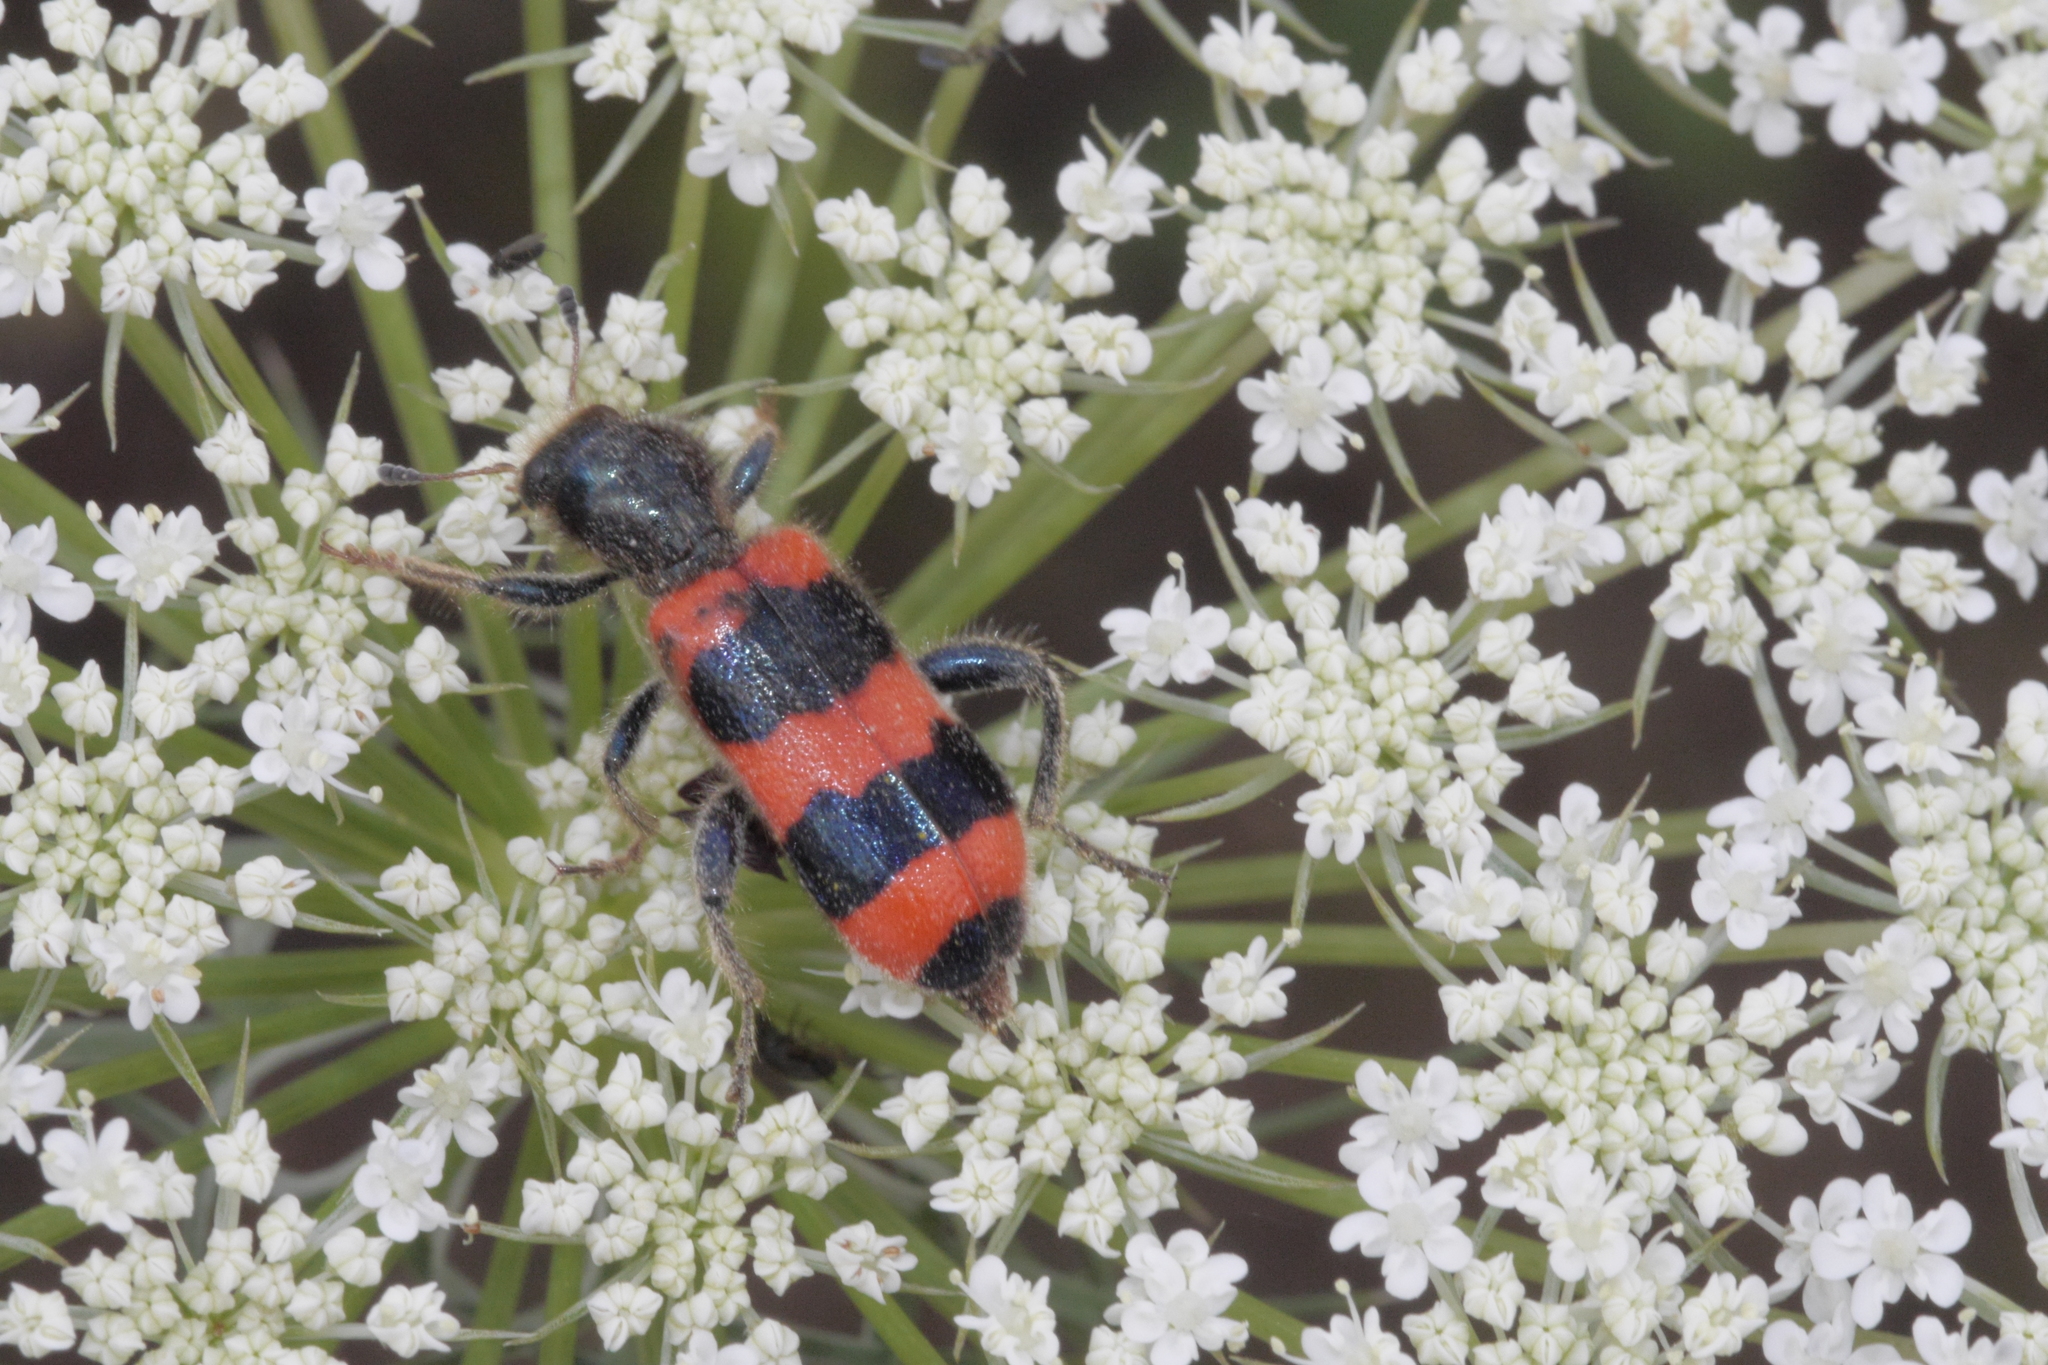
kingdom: Animalia
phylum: Arthropoda
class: Insecta
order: Coleoptera
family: Cleridae
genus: Trichodes
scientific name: Trichodes apiarius
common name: Bee-eating beetle
